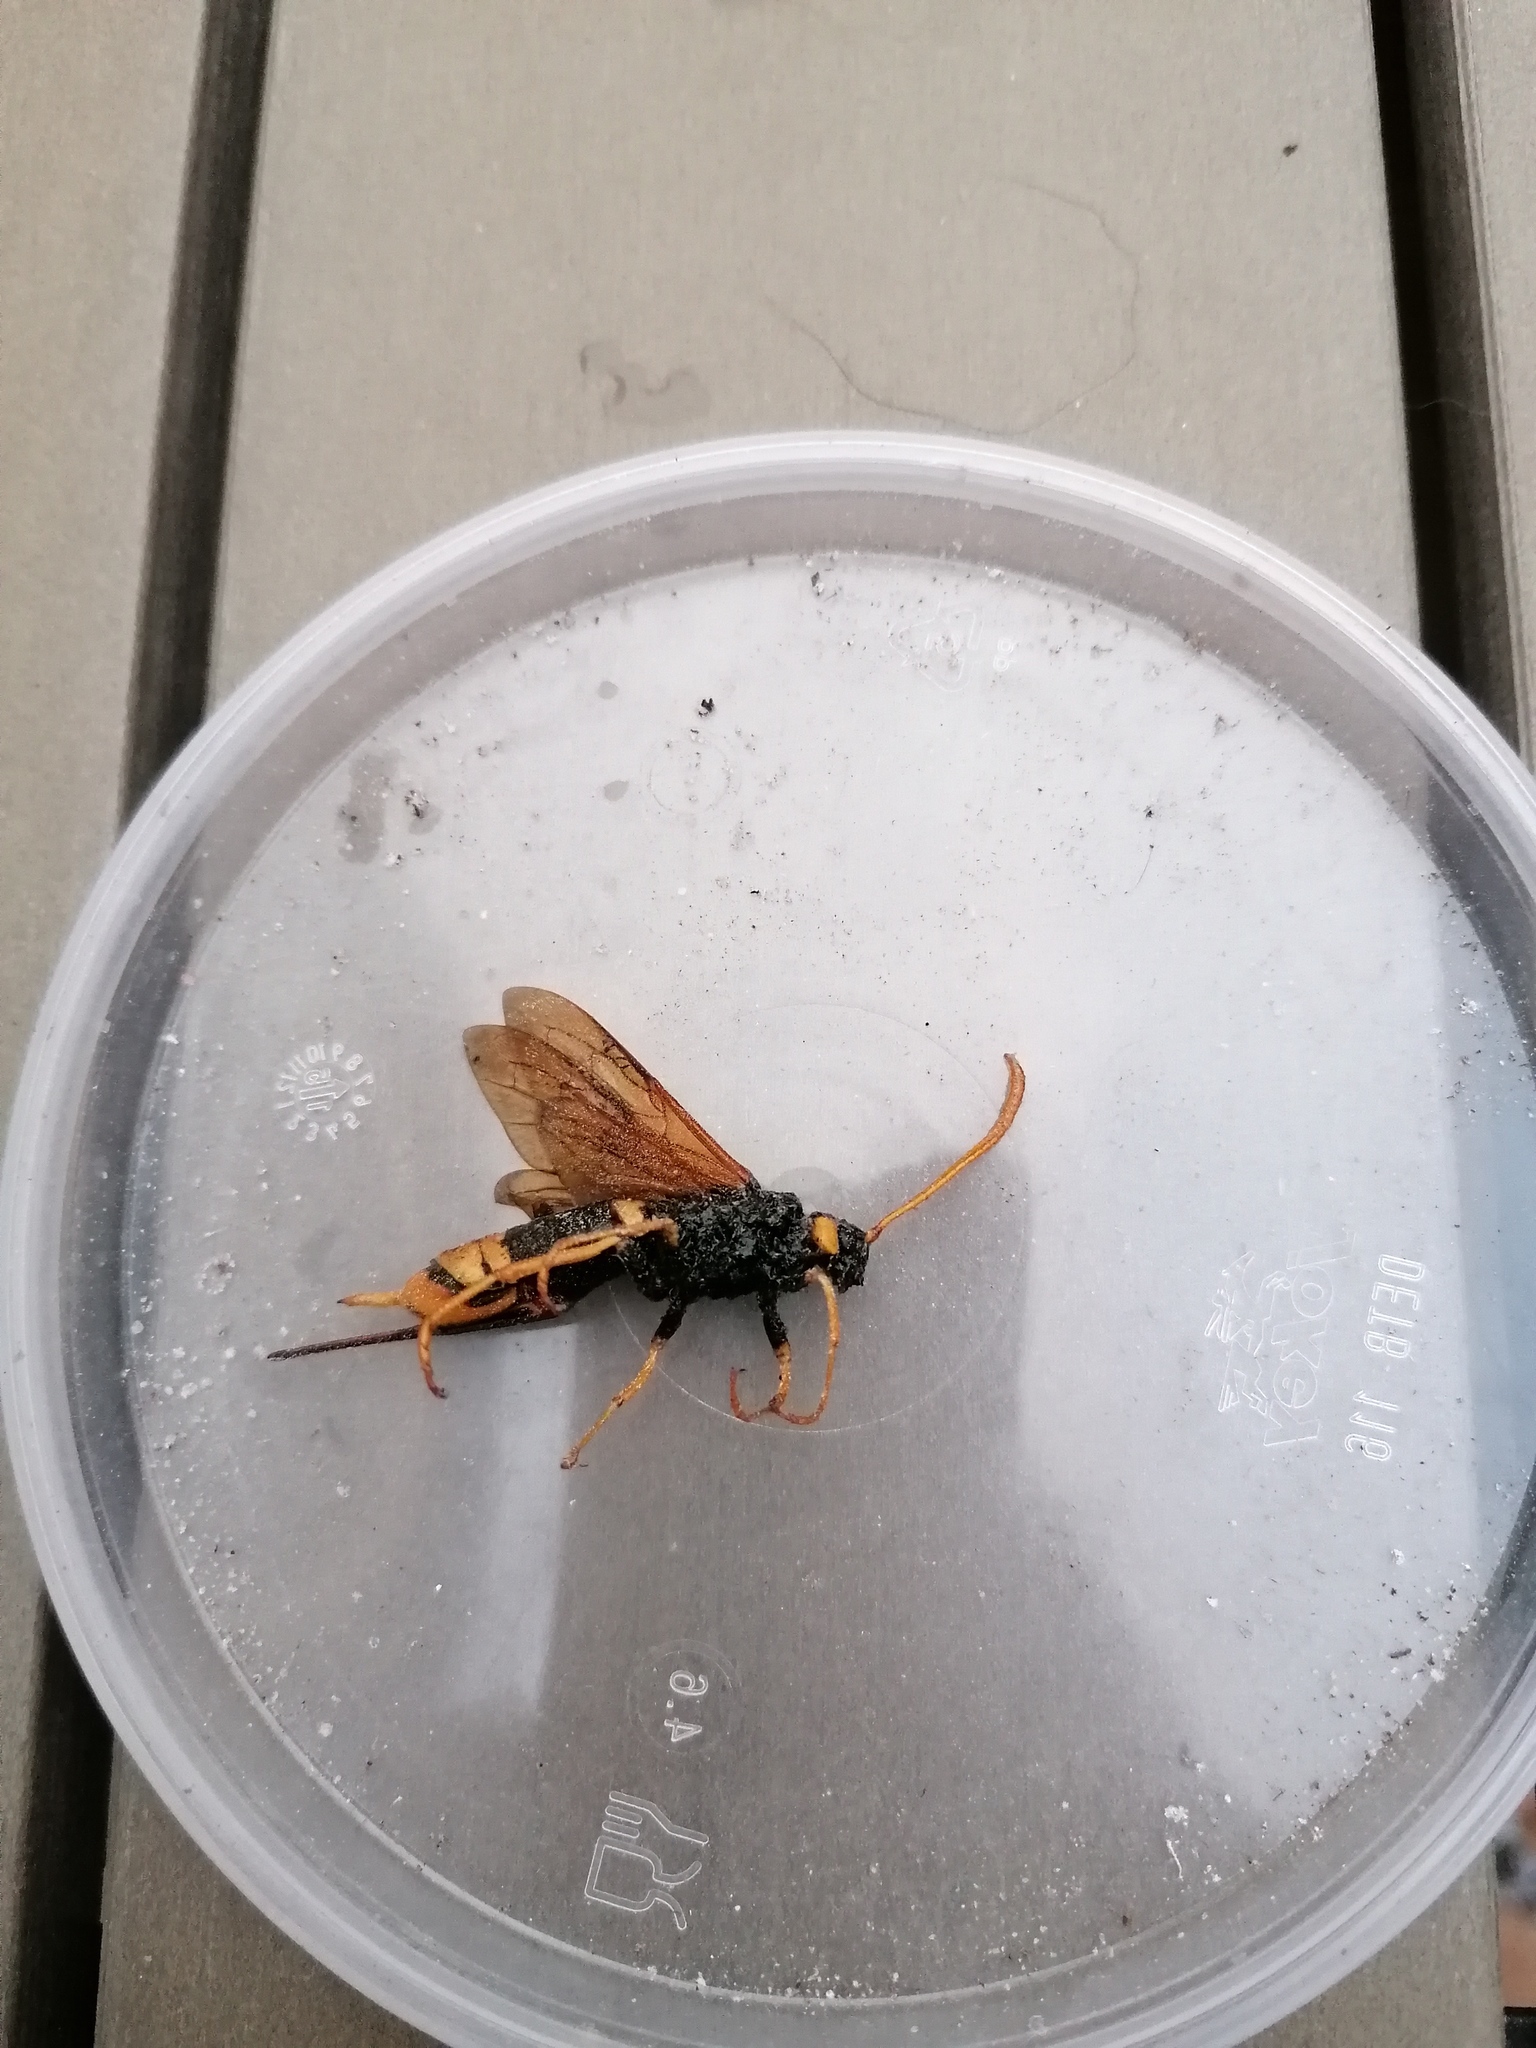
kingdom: Animalia
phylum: Arthropoda
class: Insecta
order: Hymenoptera
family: Siricidae
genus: Urocerus
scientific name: Urocerus gigas
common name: Giant woodwasp
